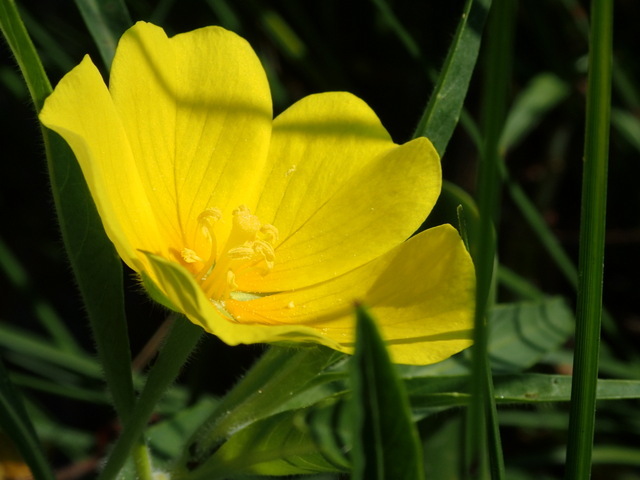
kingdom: Plantae
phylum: Tracheophyta
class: Magnoliopsida
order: Myrtales
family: Onagraceae
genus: Ludwigia
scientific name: Ludwigia hexapetala
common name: Water-primrose
